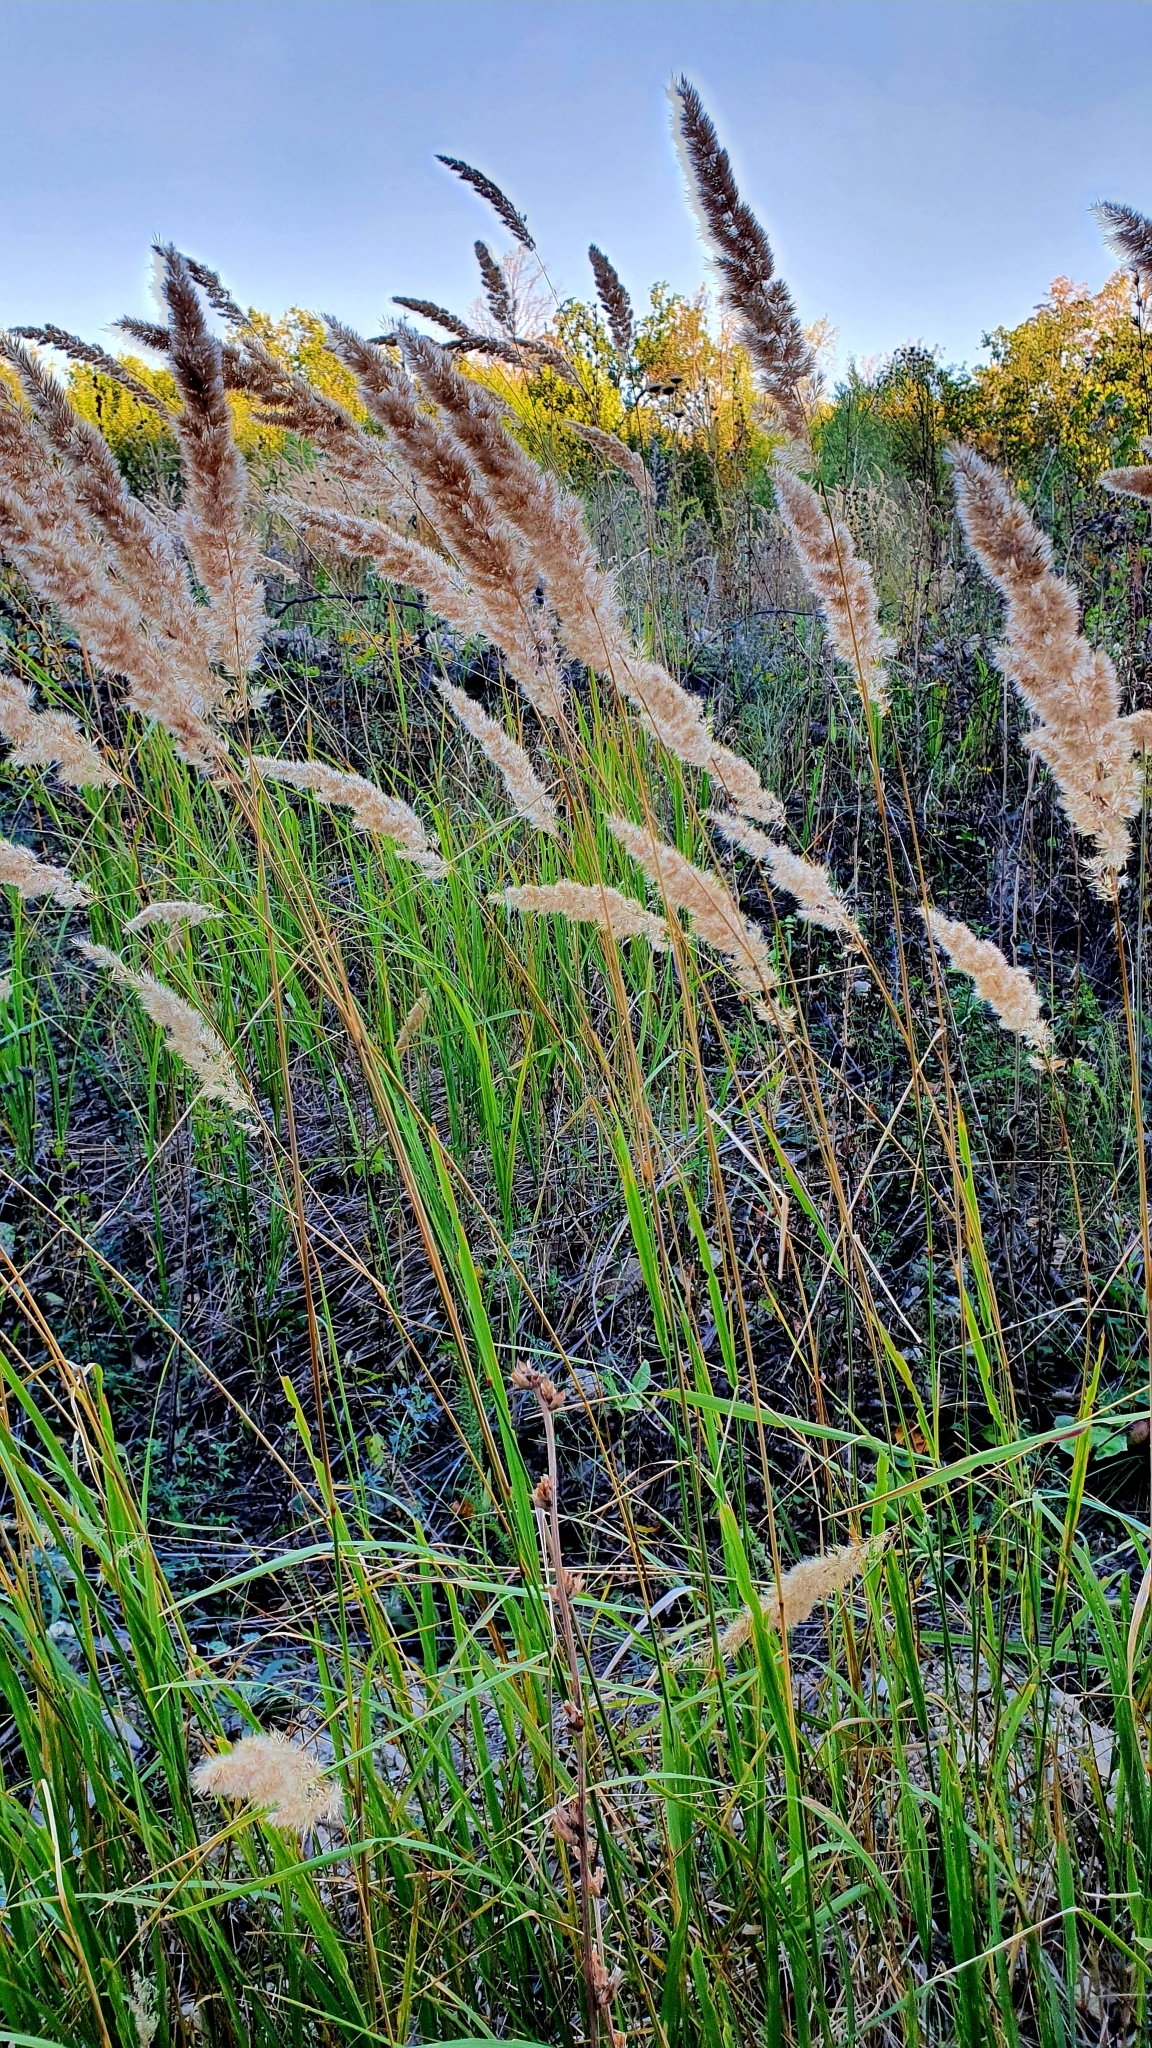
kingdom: Plantae
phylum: Tracheophyta
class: Liliopsida
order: Poales
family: Poaceae
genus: Calamagrostis
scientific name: Calamagrostis epigejos
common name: Wood small-reed
